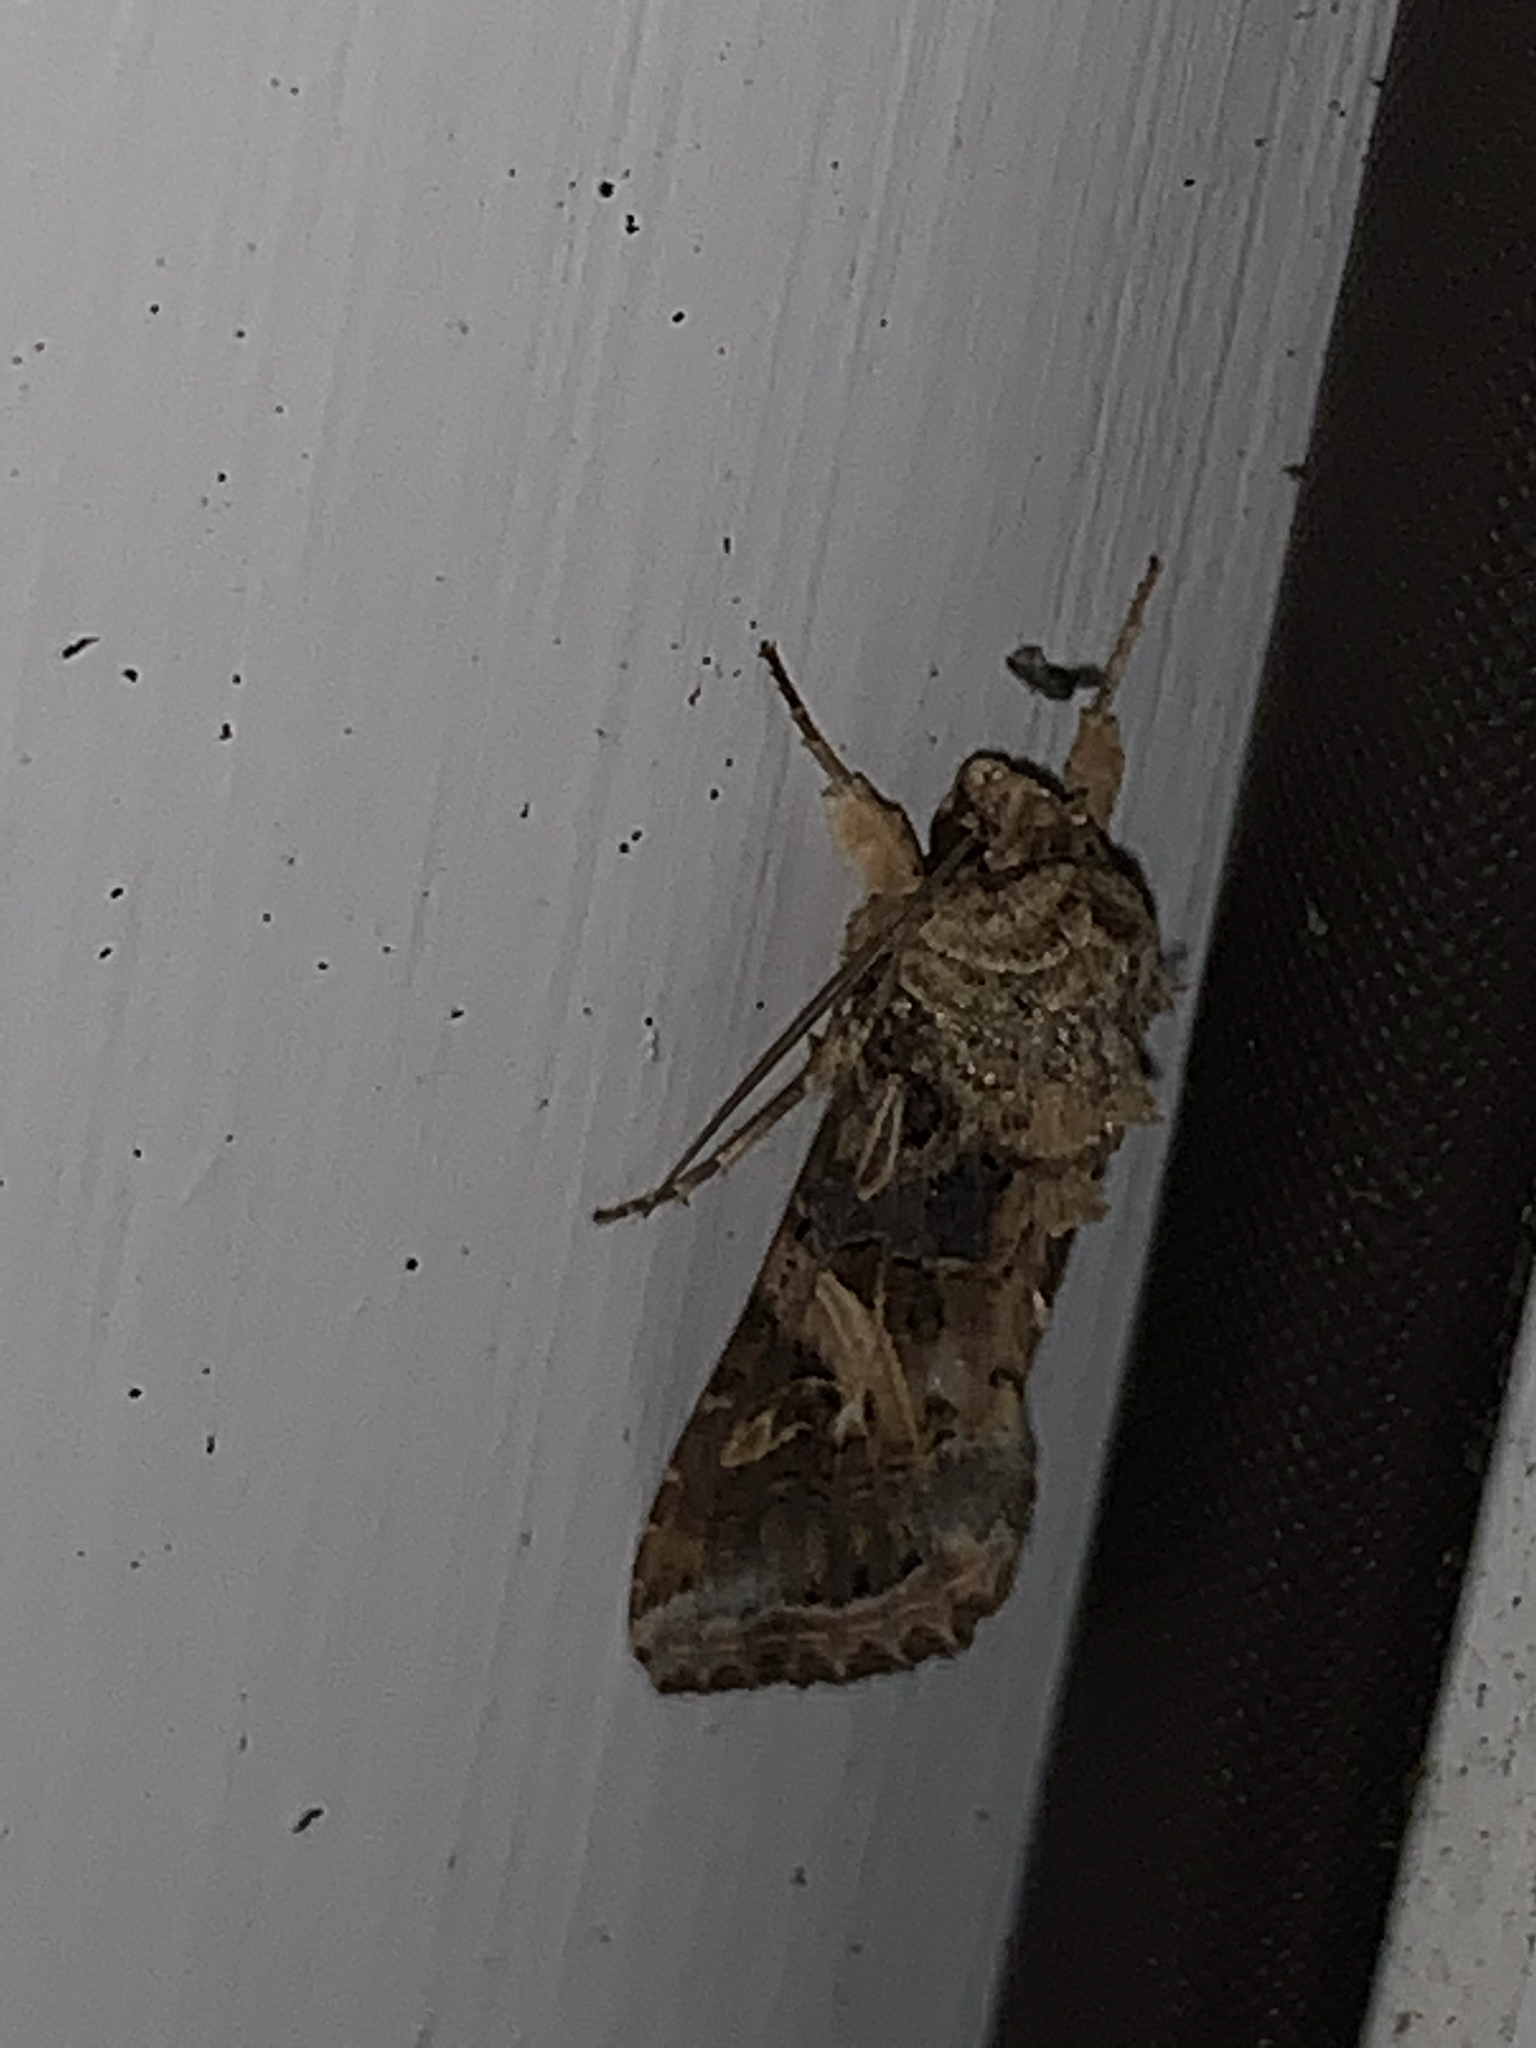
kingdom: Animalia
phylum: Arthropoda
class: Insecta
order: Lepidoptera
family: Noctuidae
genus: Spodoptera
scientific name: Spodoptera ornithogalli
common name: Yellow-striped armyworm
